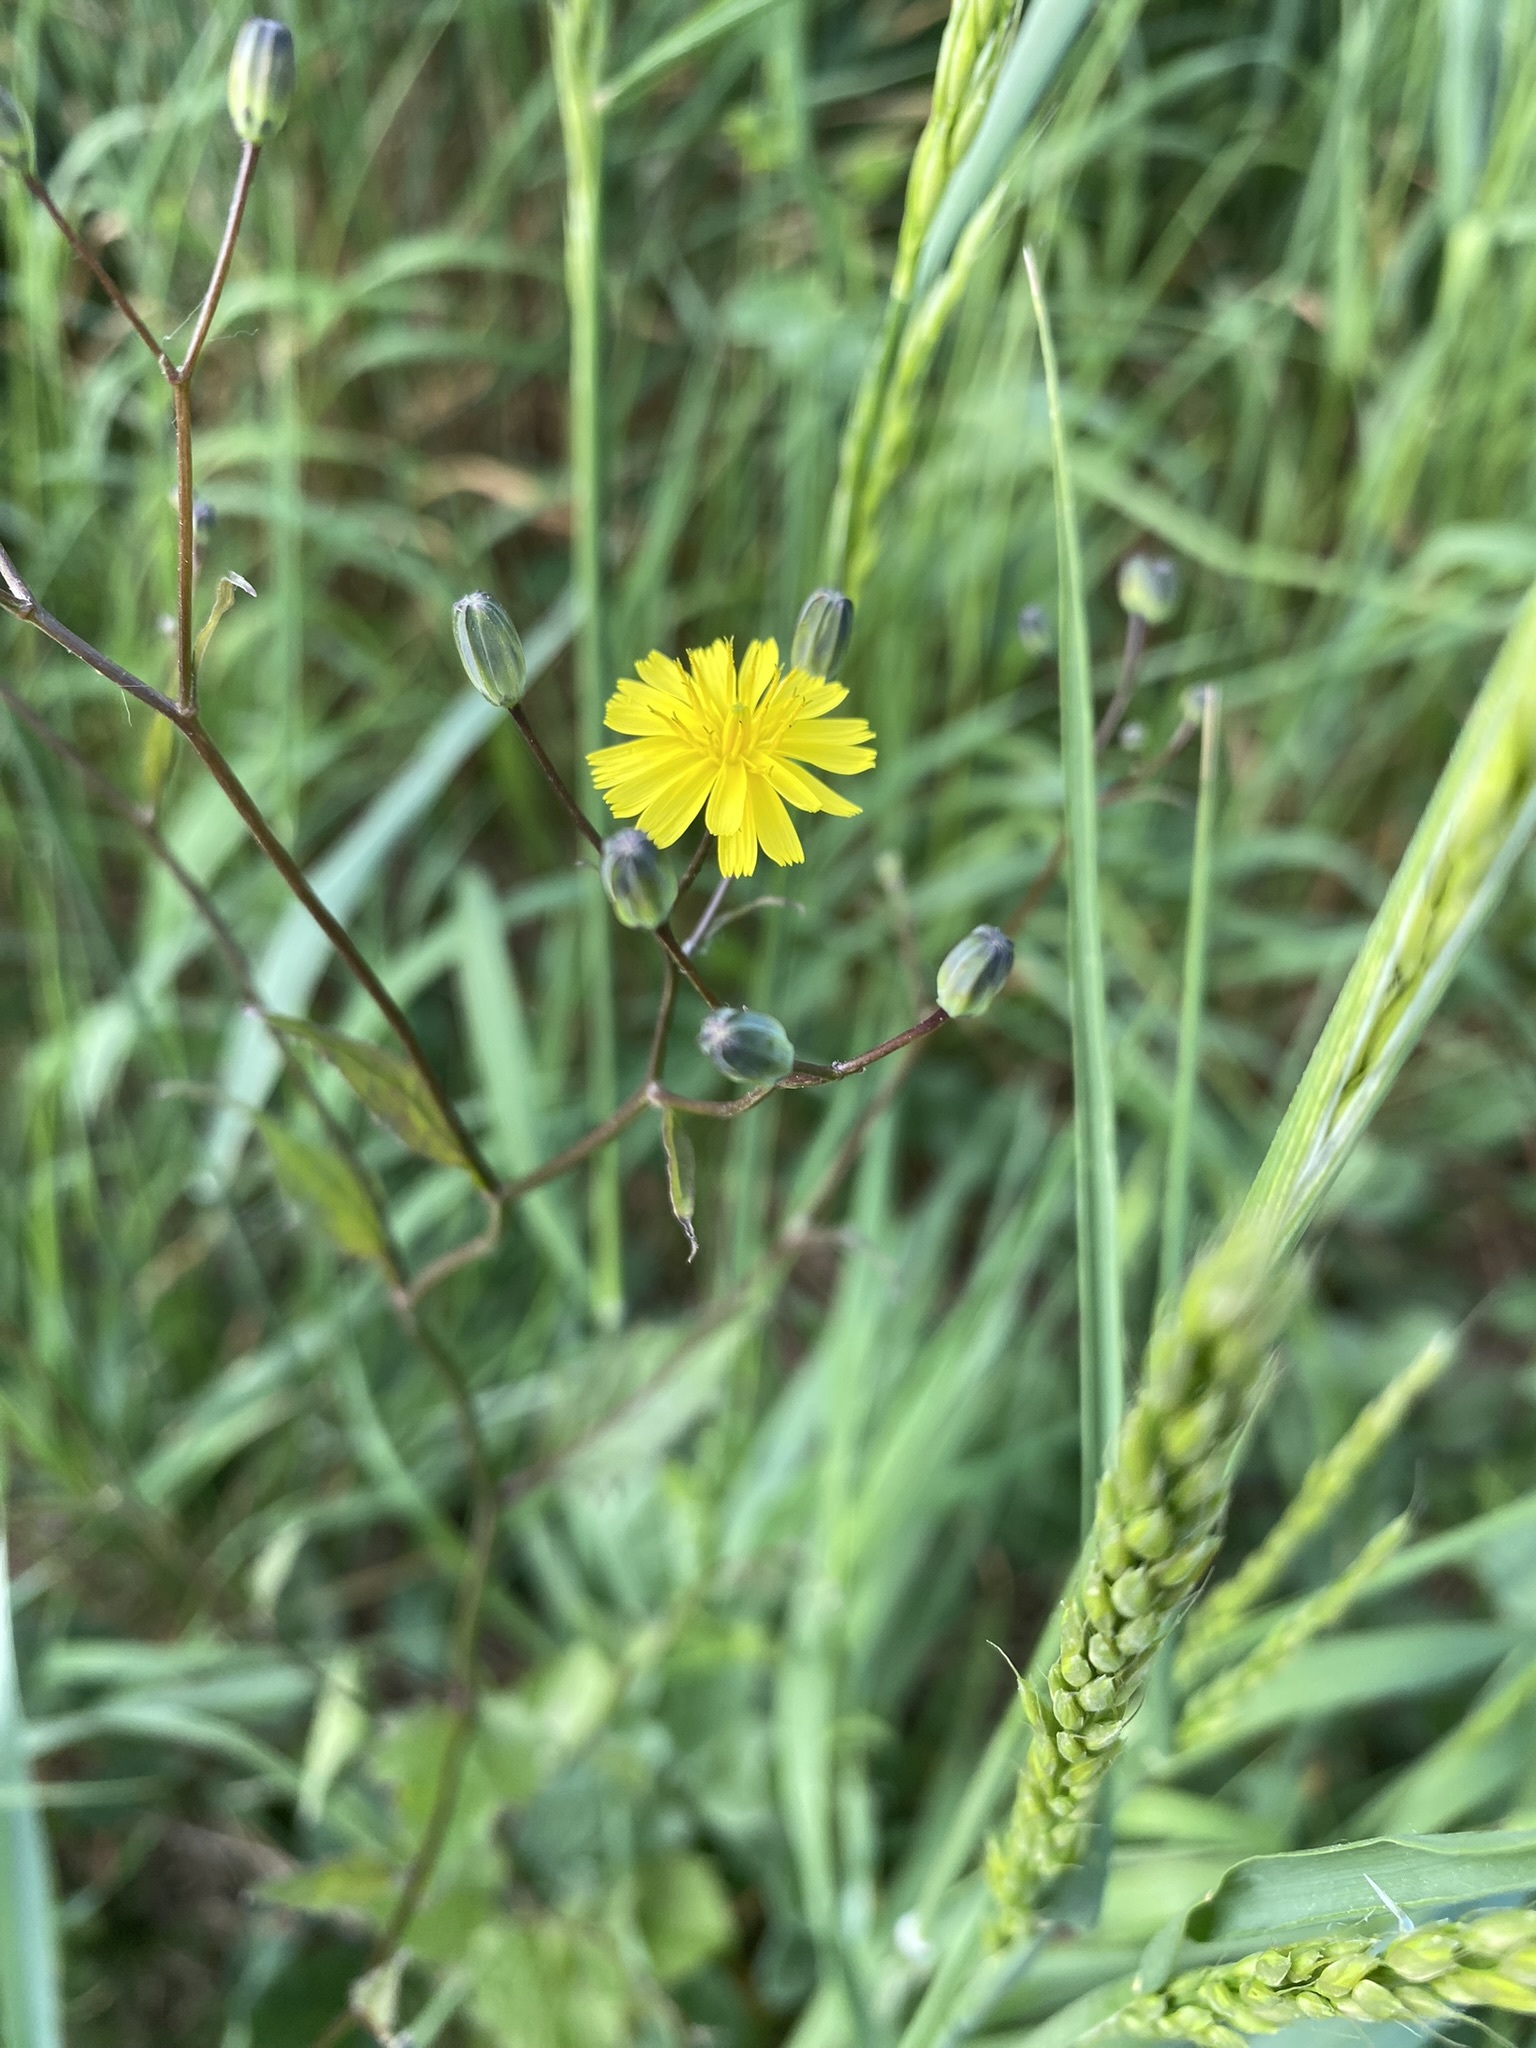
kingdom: Plantae
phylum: Tracheophyta
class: Magnoliopsida
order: Asterales
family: Asteraceae
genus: Lapsana
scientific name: Lapsana communis
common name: Nipplewort
